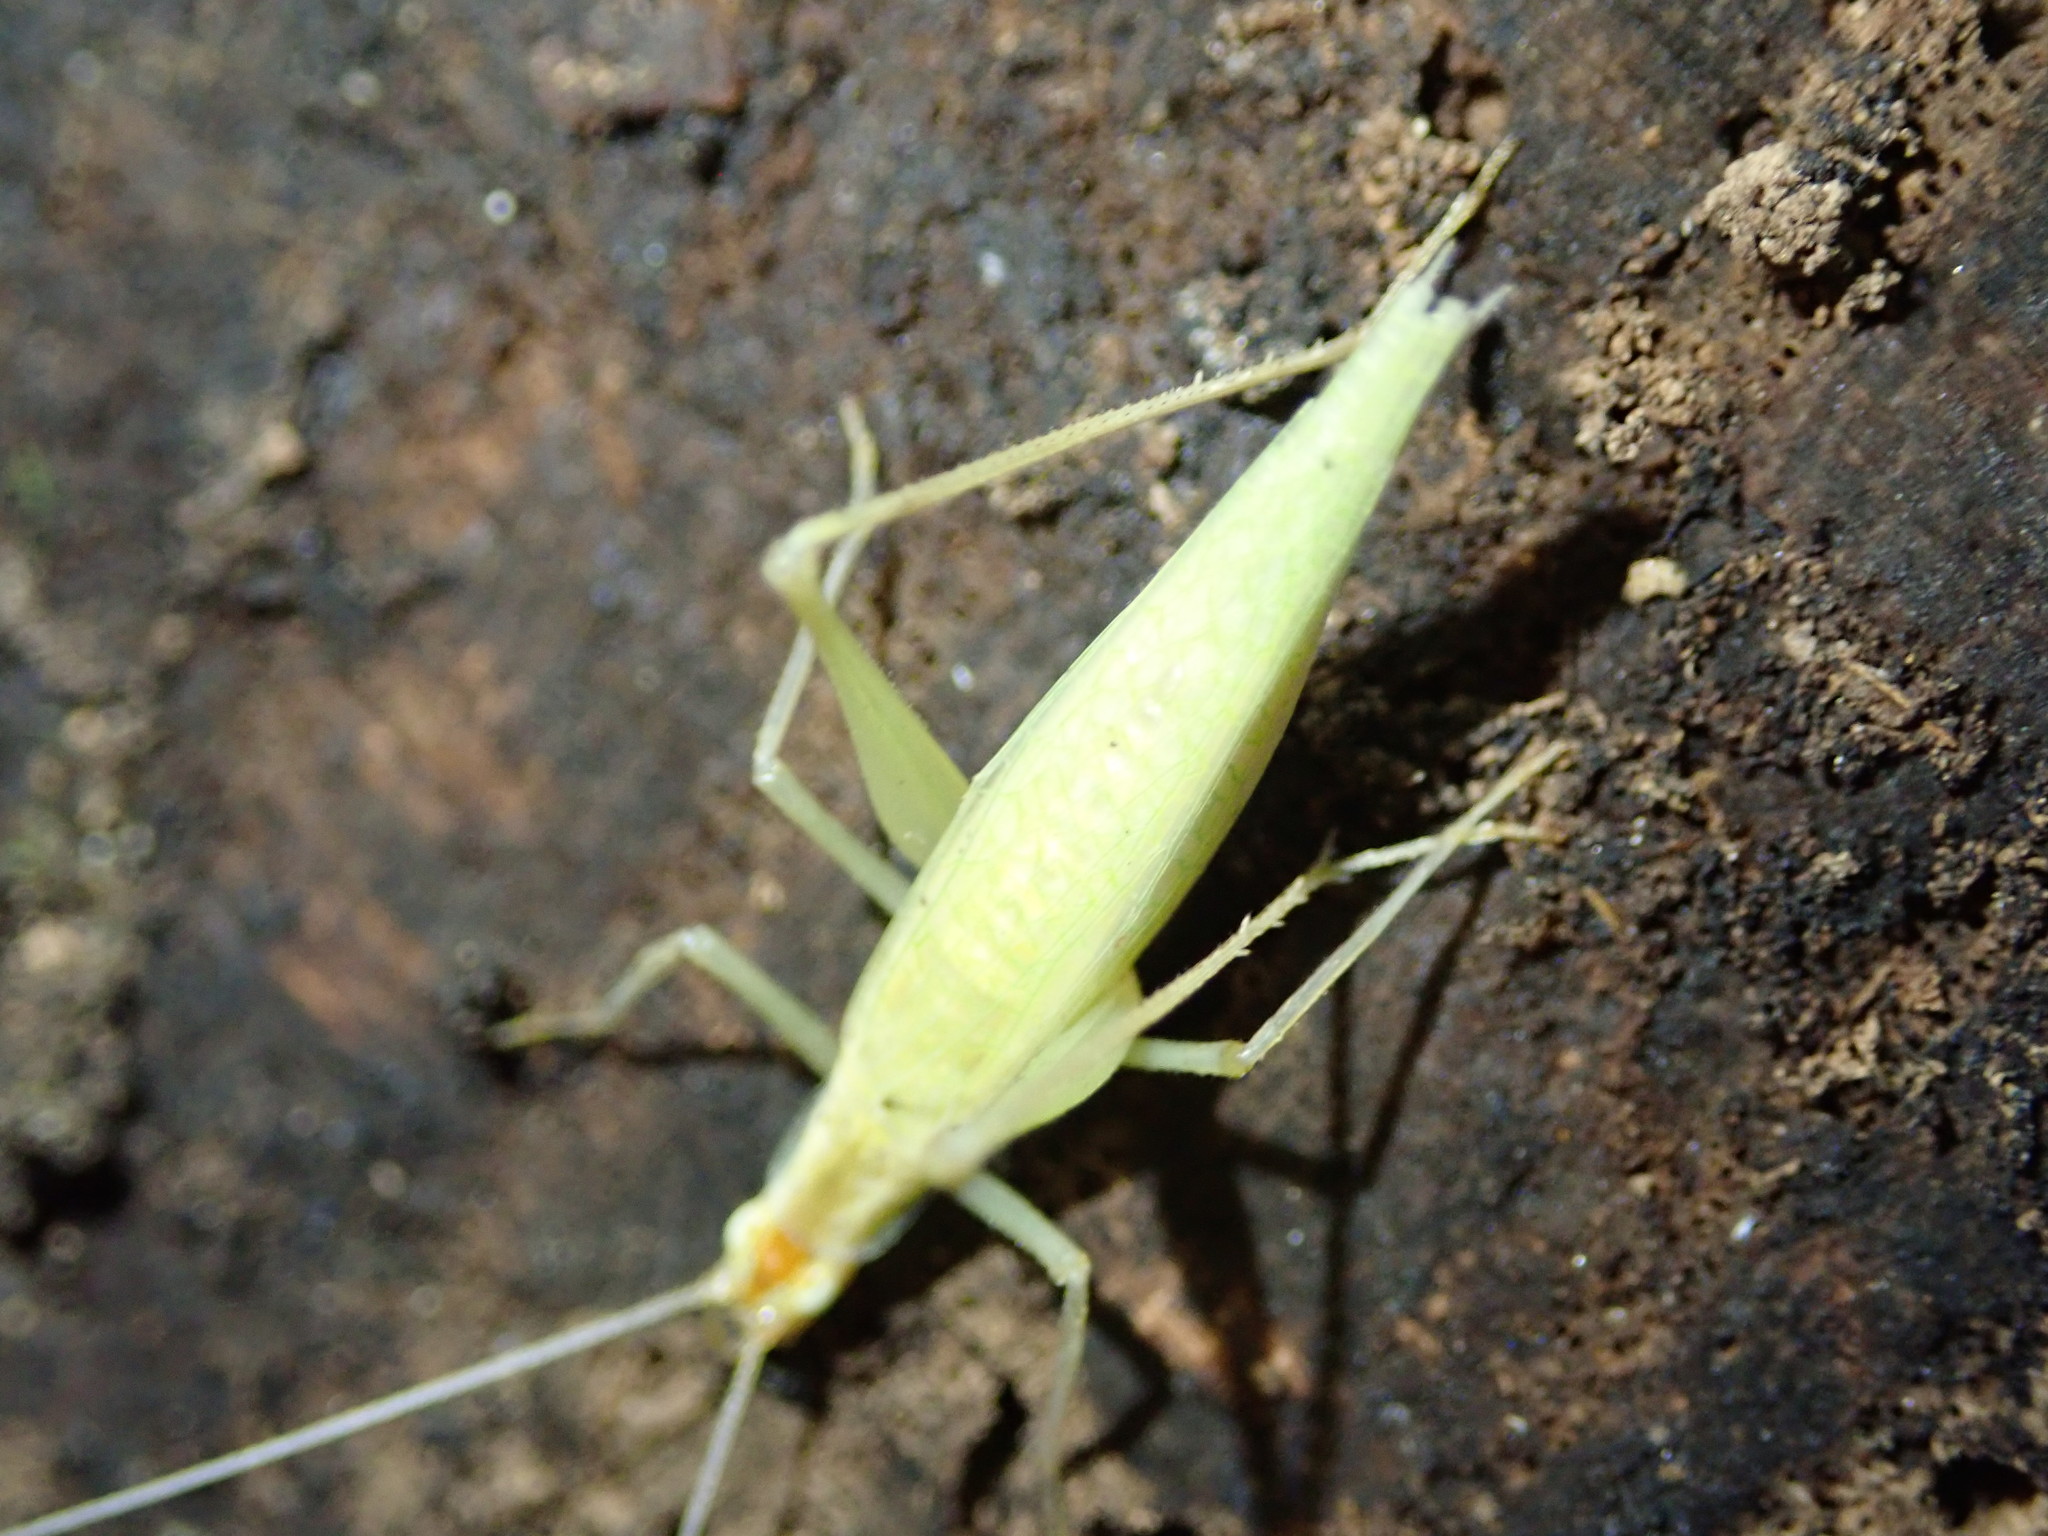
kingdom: Animalia
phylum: Arthropoda
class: Insecta
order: Orthoptera
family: Gryllidae
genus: Oecanthus
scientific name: Oecanthus
